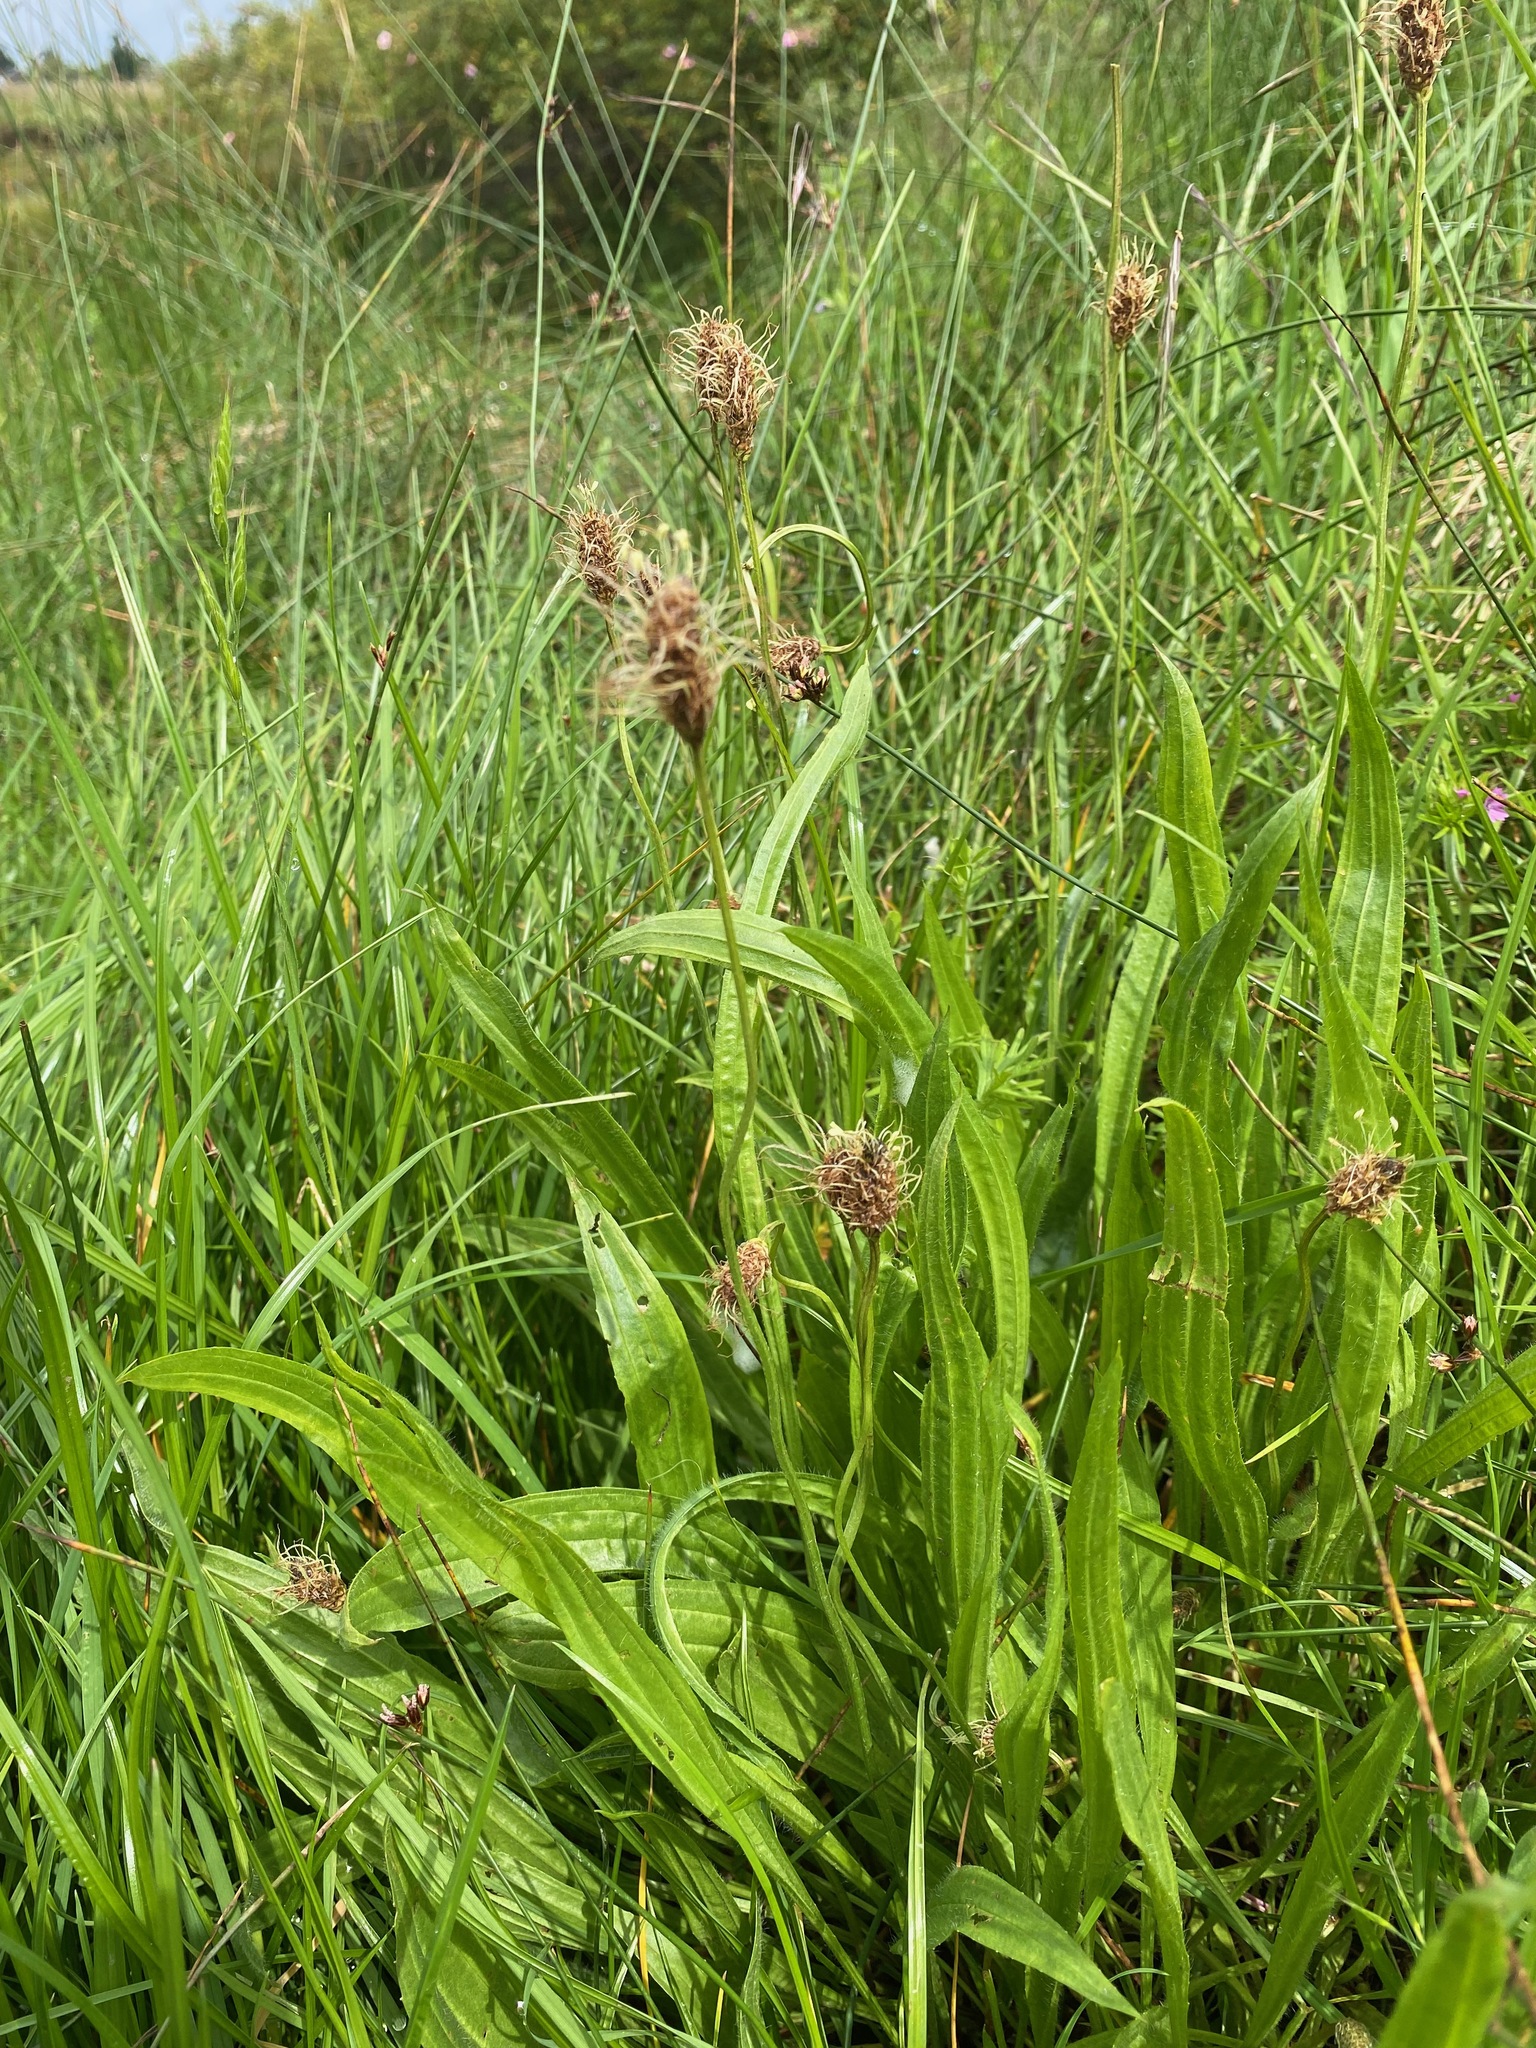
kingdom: Plantae
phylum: Tracheophyta
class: Magnoliopsida
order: Lamiales
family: Plantaginaceae
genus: Plantago
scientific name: Plantago lanceolata
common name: Ribwort plantain
